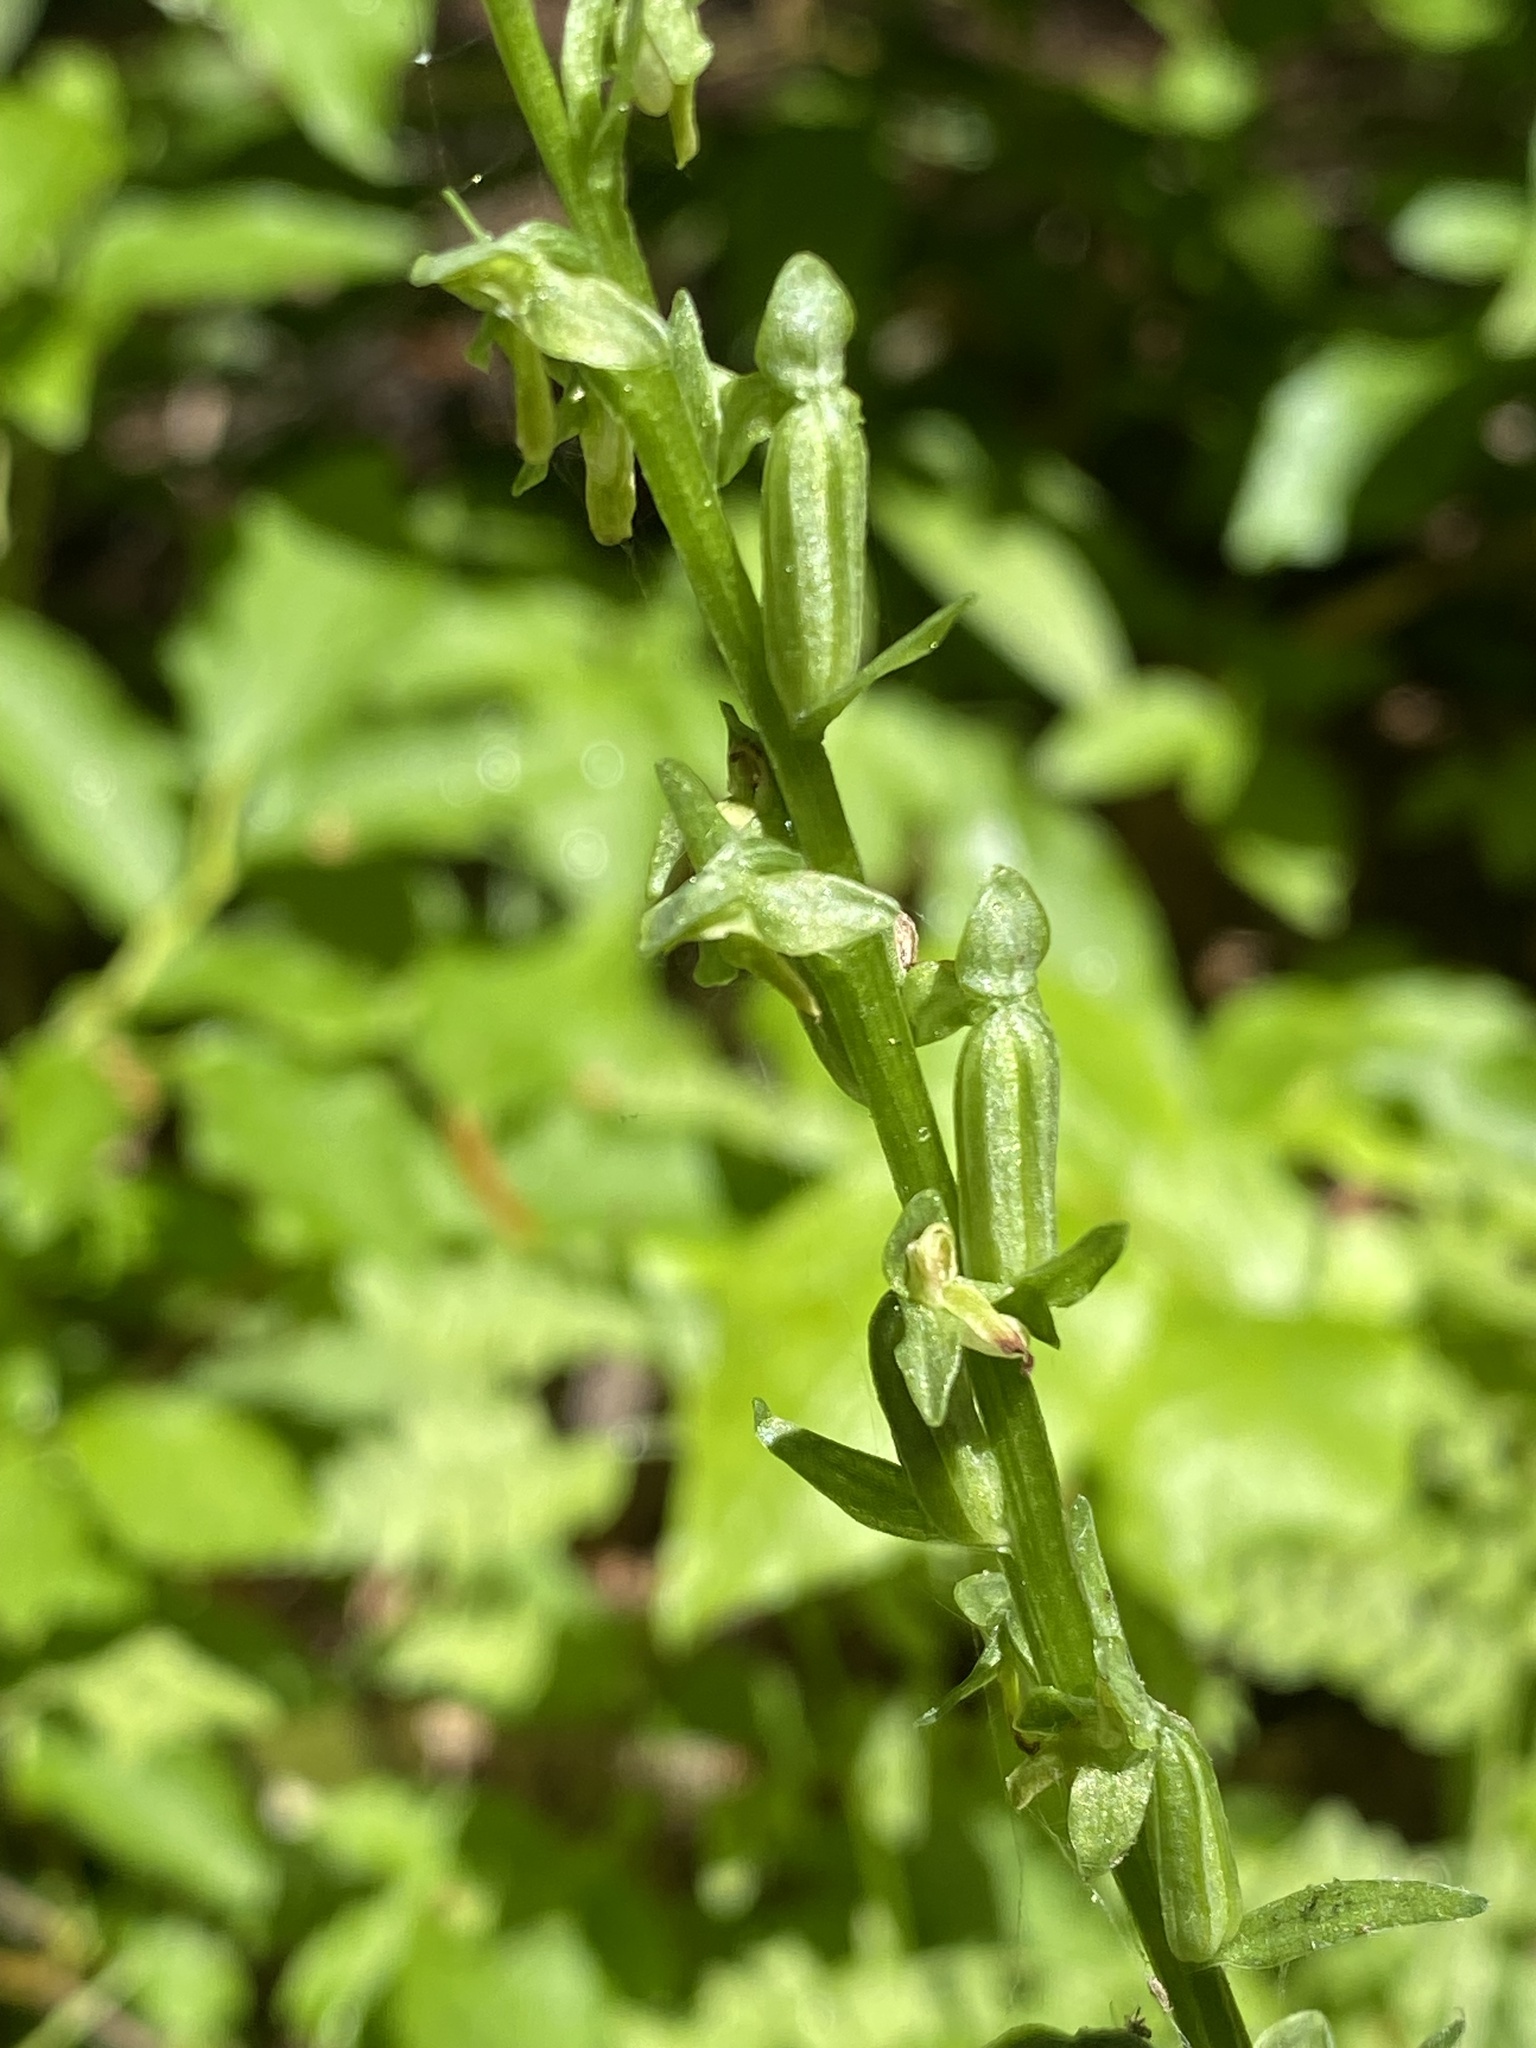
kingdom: Plantae
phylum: Tracheophyta
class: Liliopsida
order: Asparagales
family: Orchidaceae
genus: Platanthera
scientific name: Platanthera stricta
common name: Slender bog orchid
